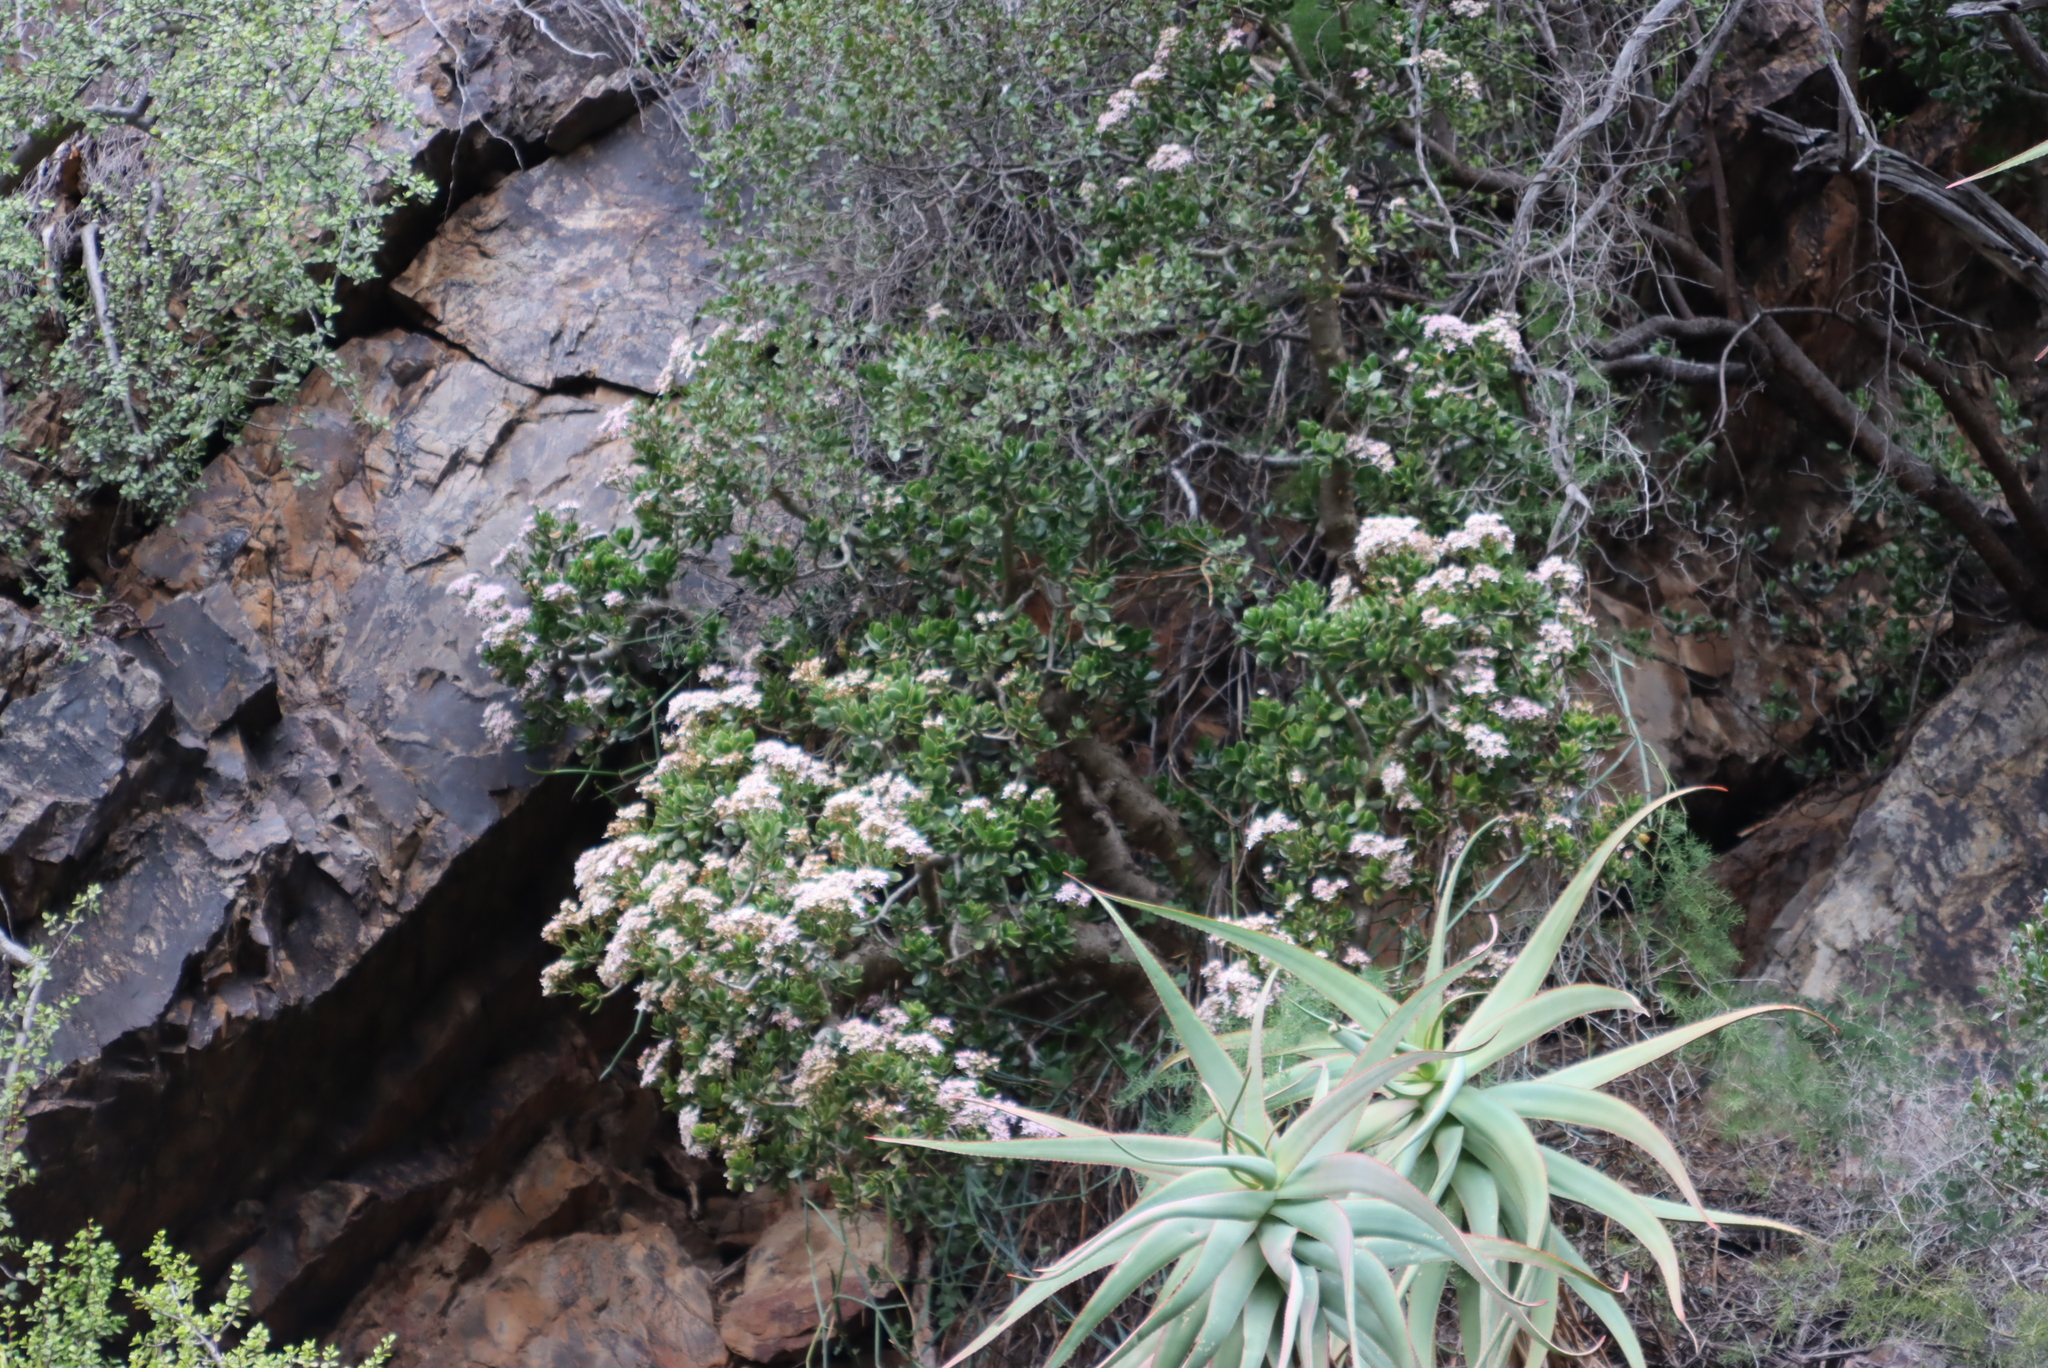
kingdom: Plantae
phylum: Tracheophyta
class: Magnoliopsida
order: Saxifragales
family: Crassulaceae
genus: Crassula
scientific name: Crassula ovata
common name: Jade plant
